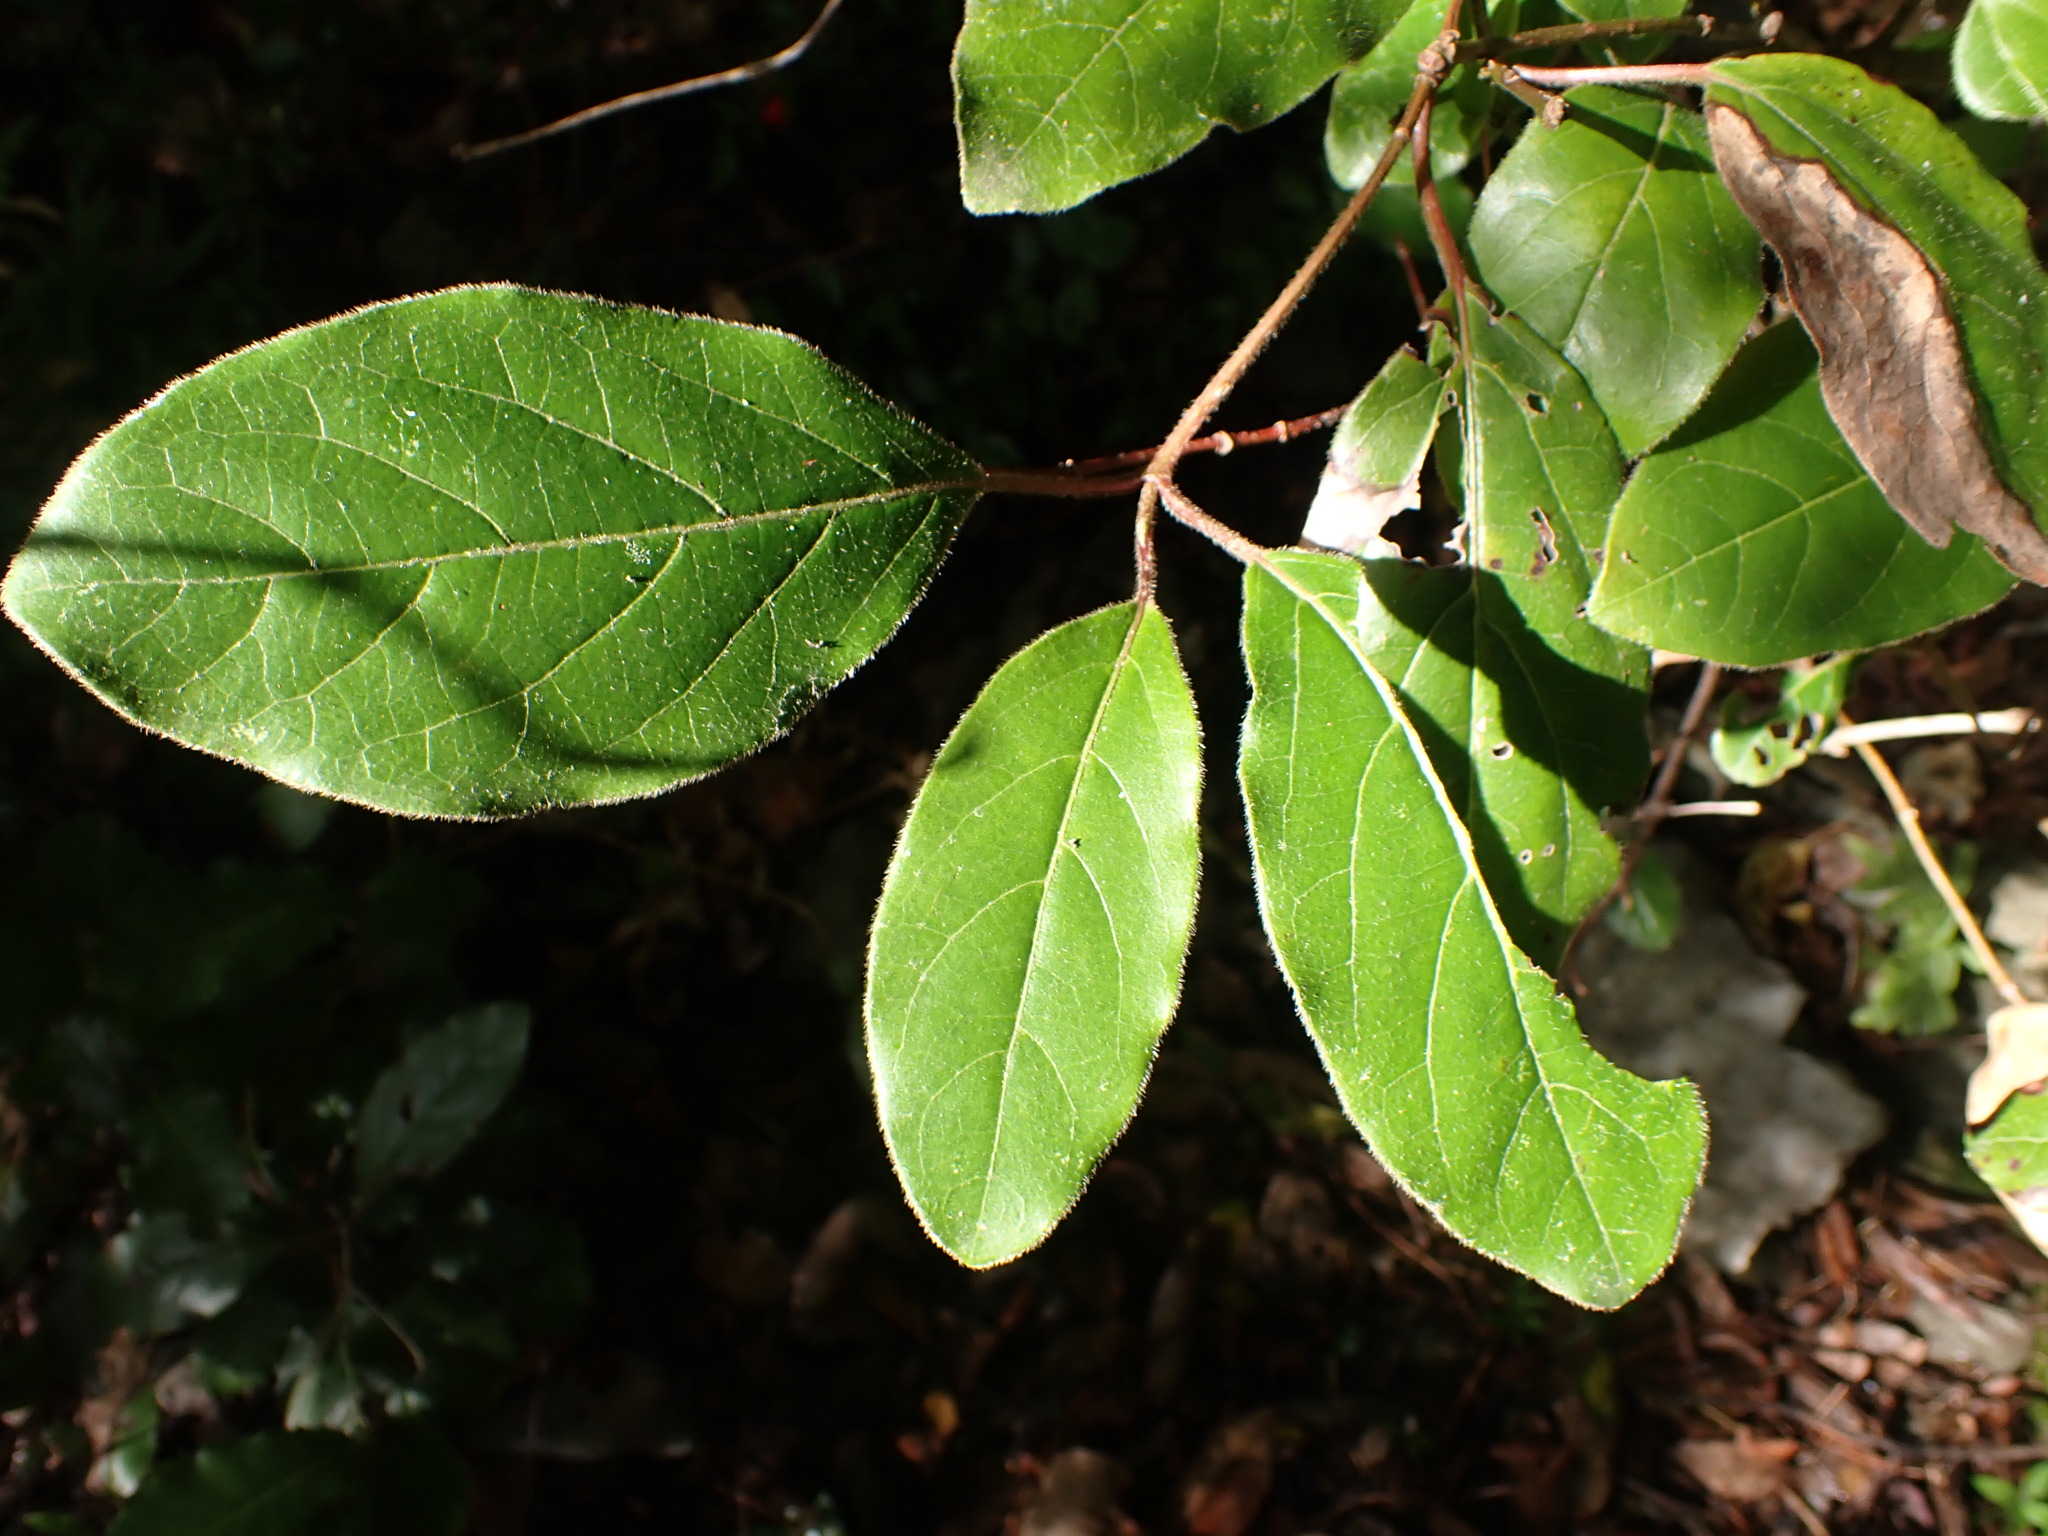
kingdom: Plantae
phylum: Tracheophyta
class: Magnoliopsida
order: Dipsacales
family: Viburnaceae
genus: Viburnum
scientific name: Viburnum tinus
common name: Laurustinus
